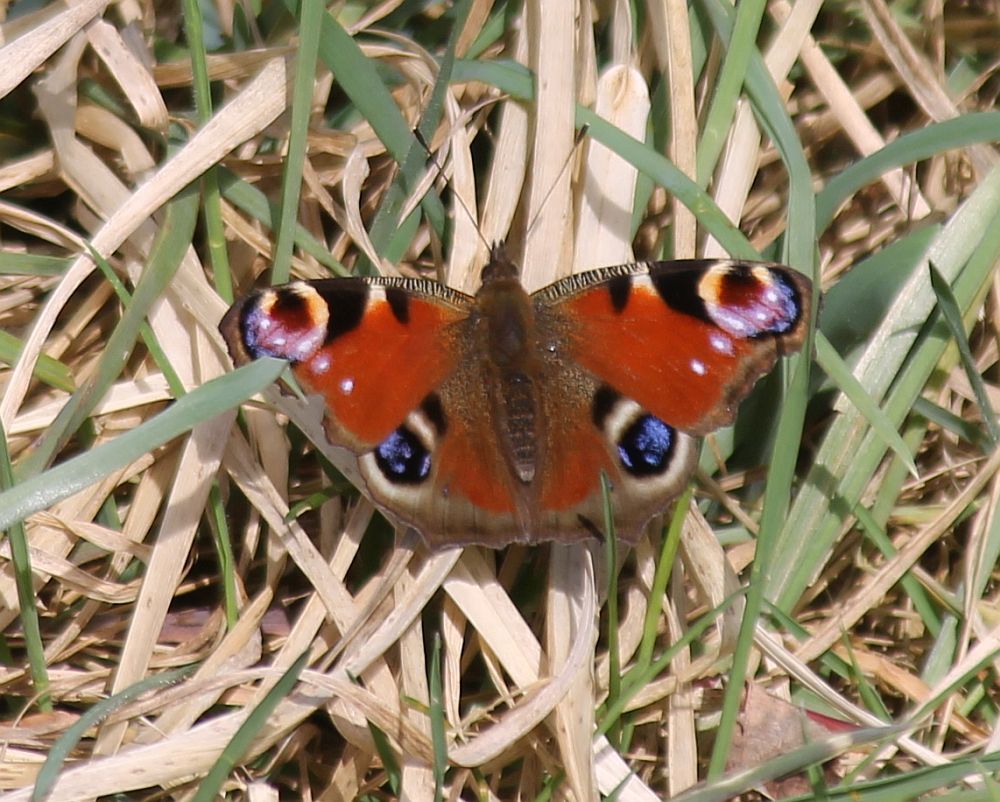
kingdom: Animalia
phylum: Arthropoda
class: Insecta
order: Lepidoptera
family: Nymphalidae
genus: Aglais
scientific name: Aglais io
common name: Peacock
